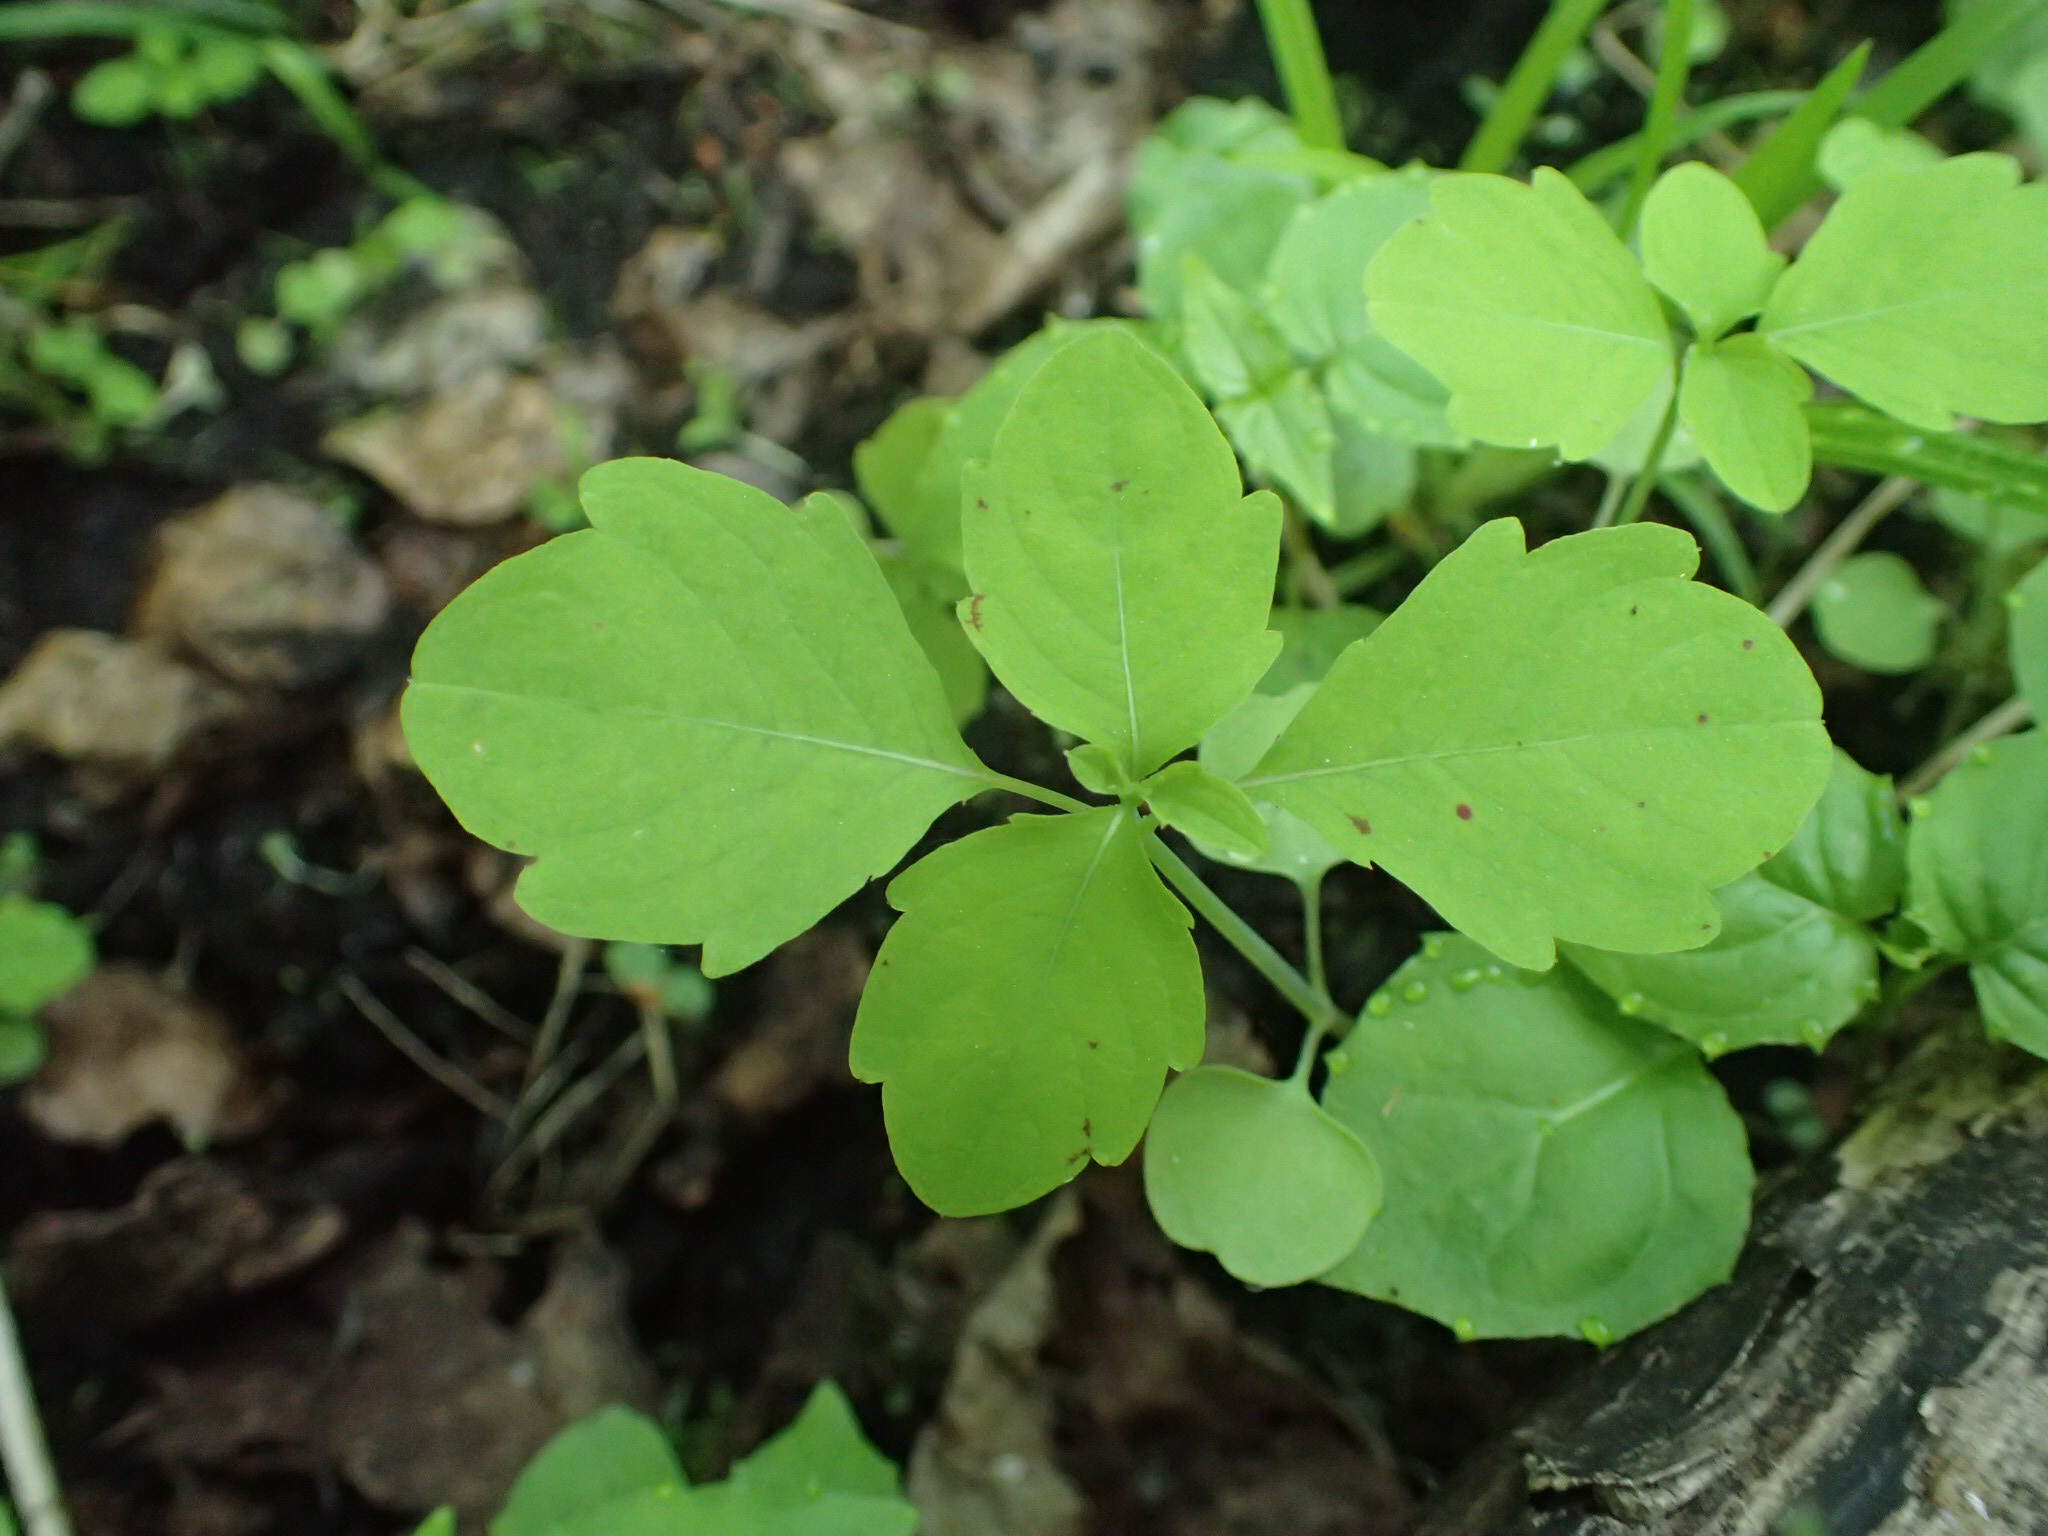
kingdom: Plantae
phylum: Tracheophyta
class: Magnoliopsida
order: Ericales
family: Balsaminaceae
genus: Impatiens
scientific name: Impatiens capensis
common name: Orange balsam
